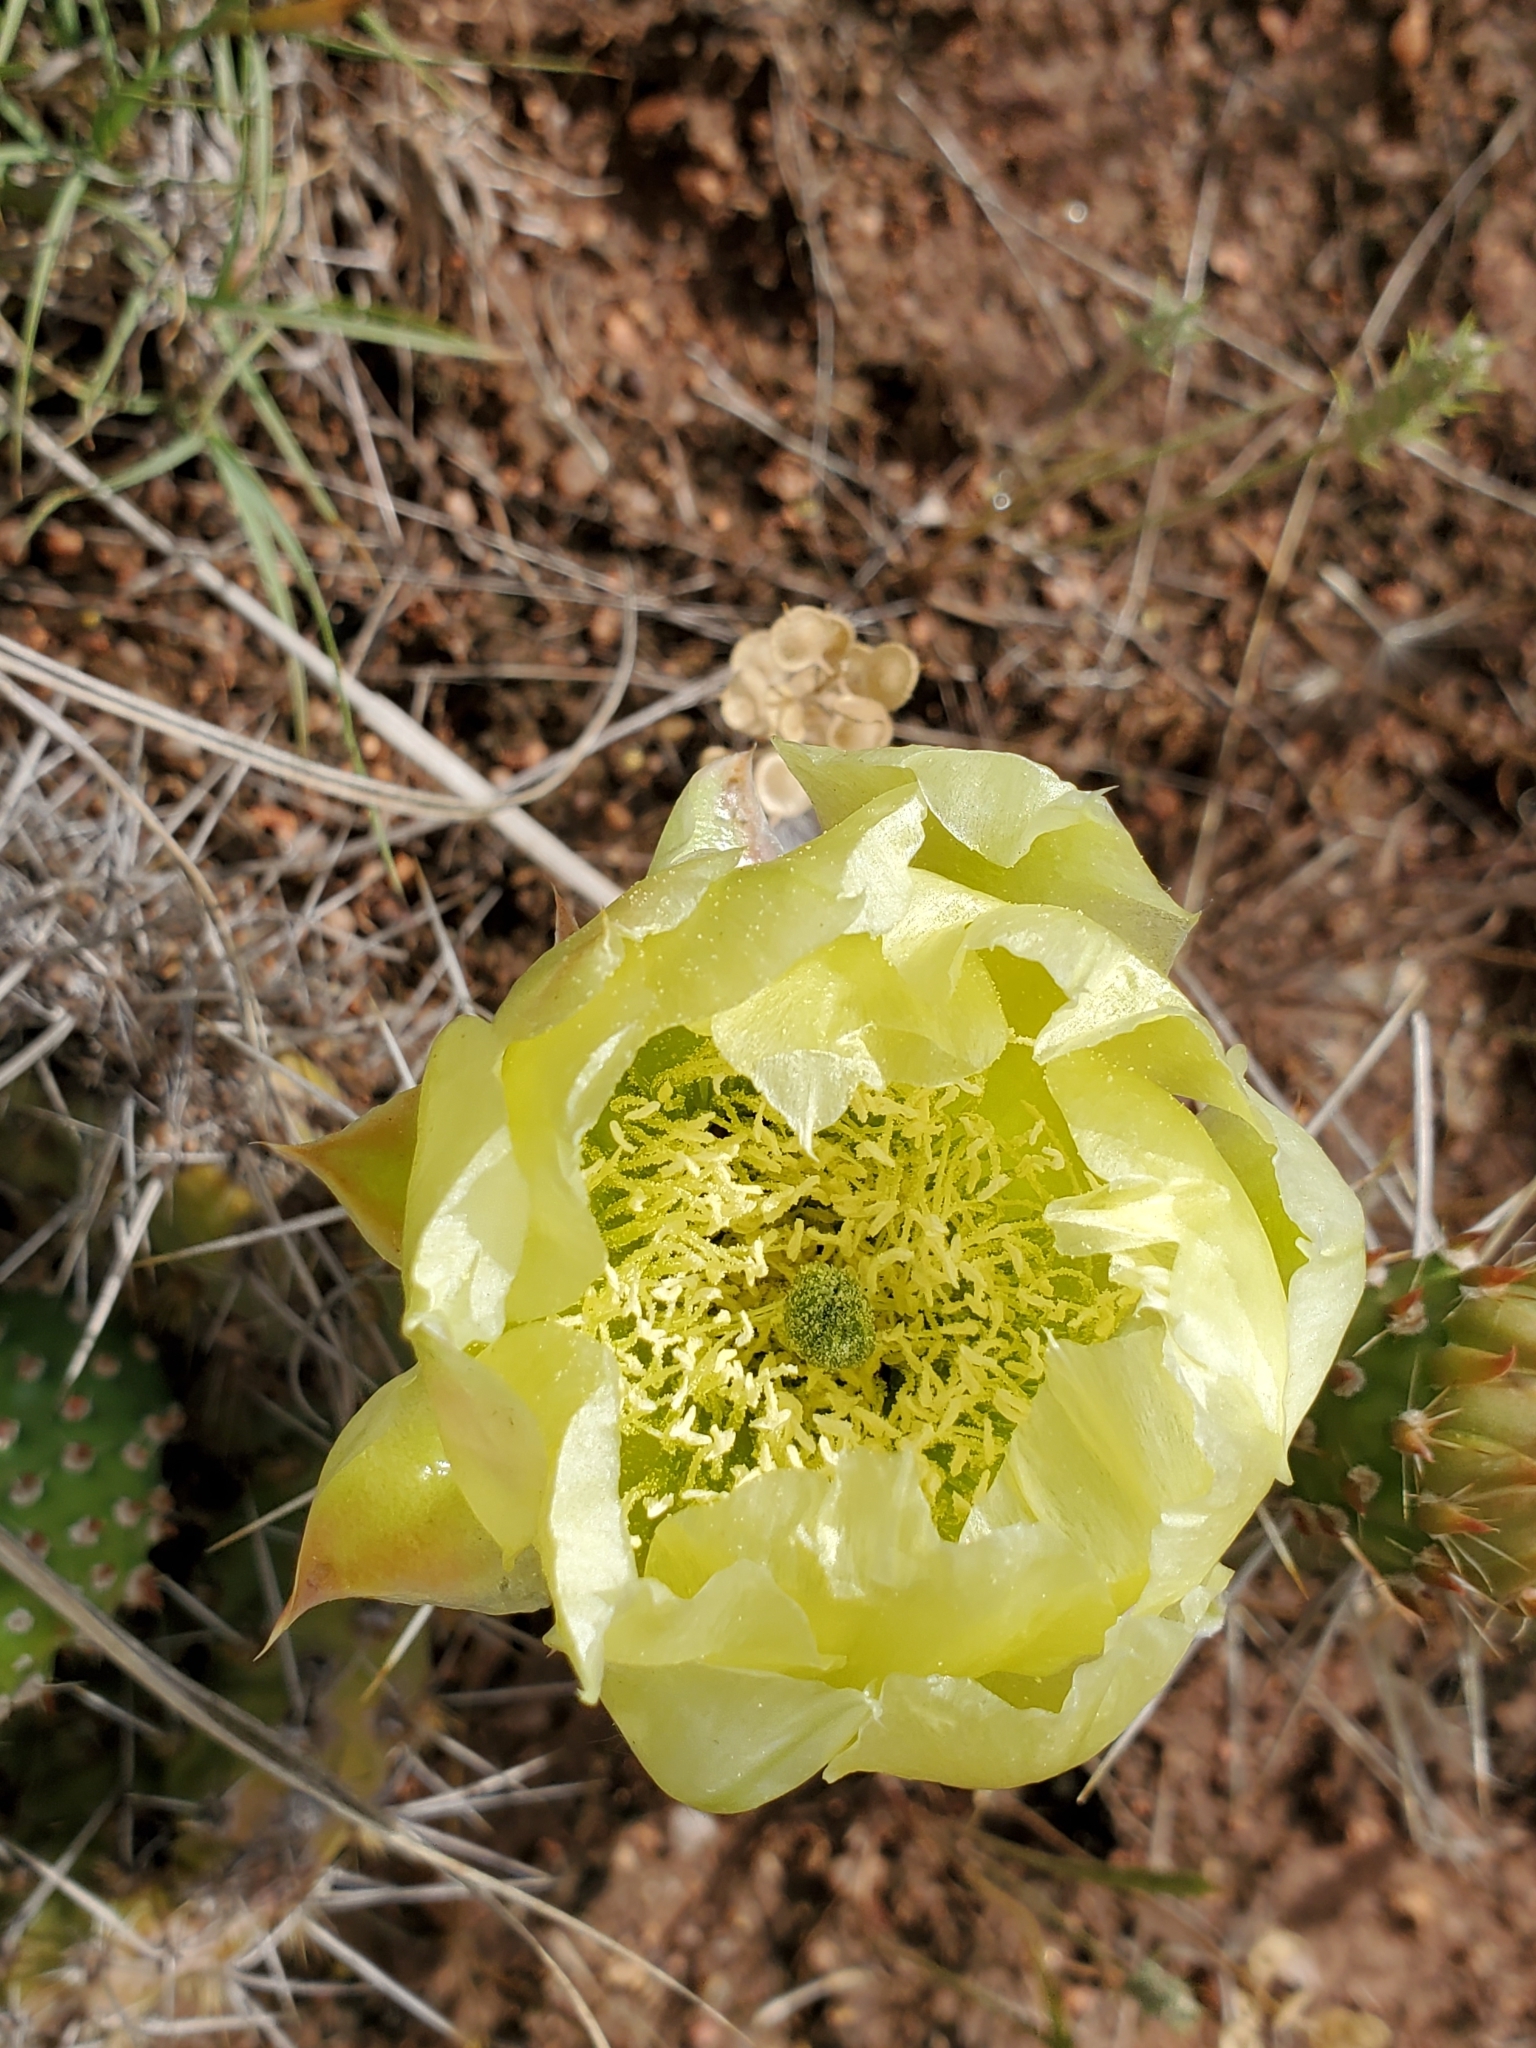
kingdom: Plantae
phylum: Tracheophyta
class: Magnoliopsida
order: Caryophyllales
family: Cactaceae
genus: Opuntia
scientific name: Opuntia polyacantha
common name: Plains prickly-pear
